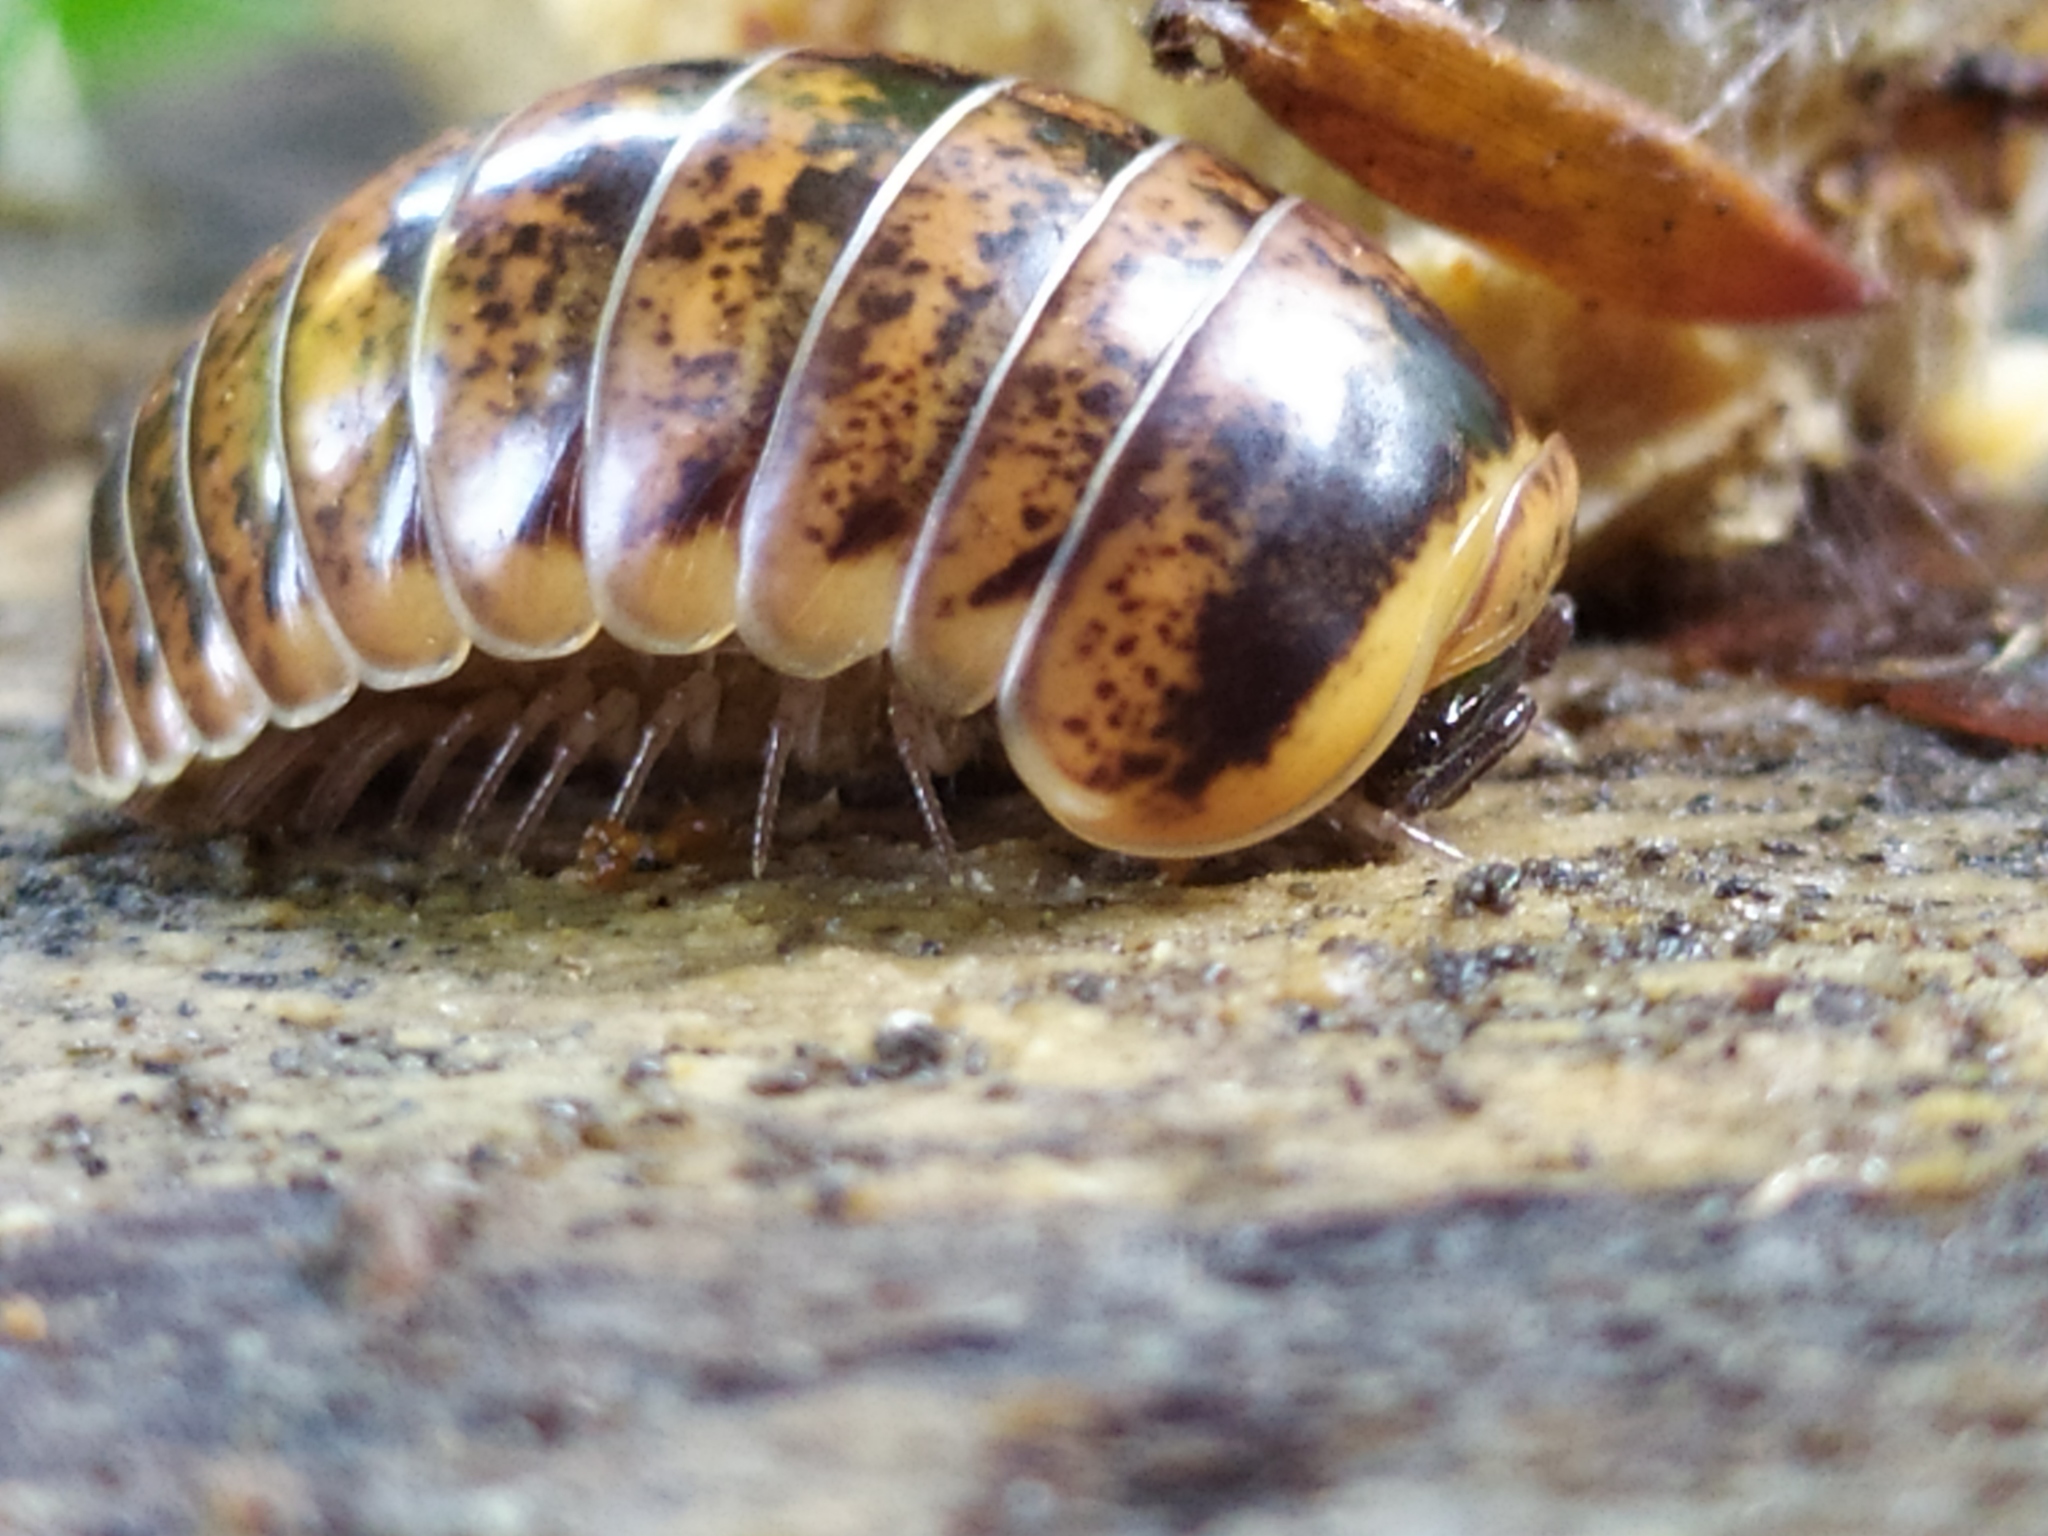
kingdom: Animalia
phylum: Arthropoda
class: Diplopoda
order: Glomerida
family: Glomeridae
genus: Glomeris
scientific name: Glomeris klugii
